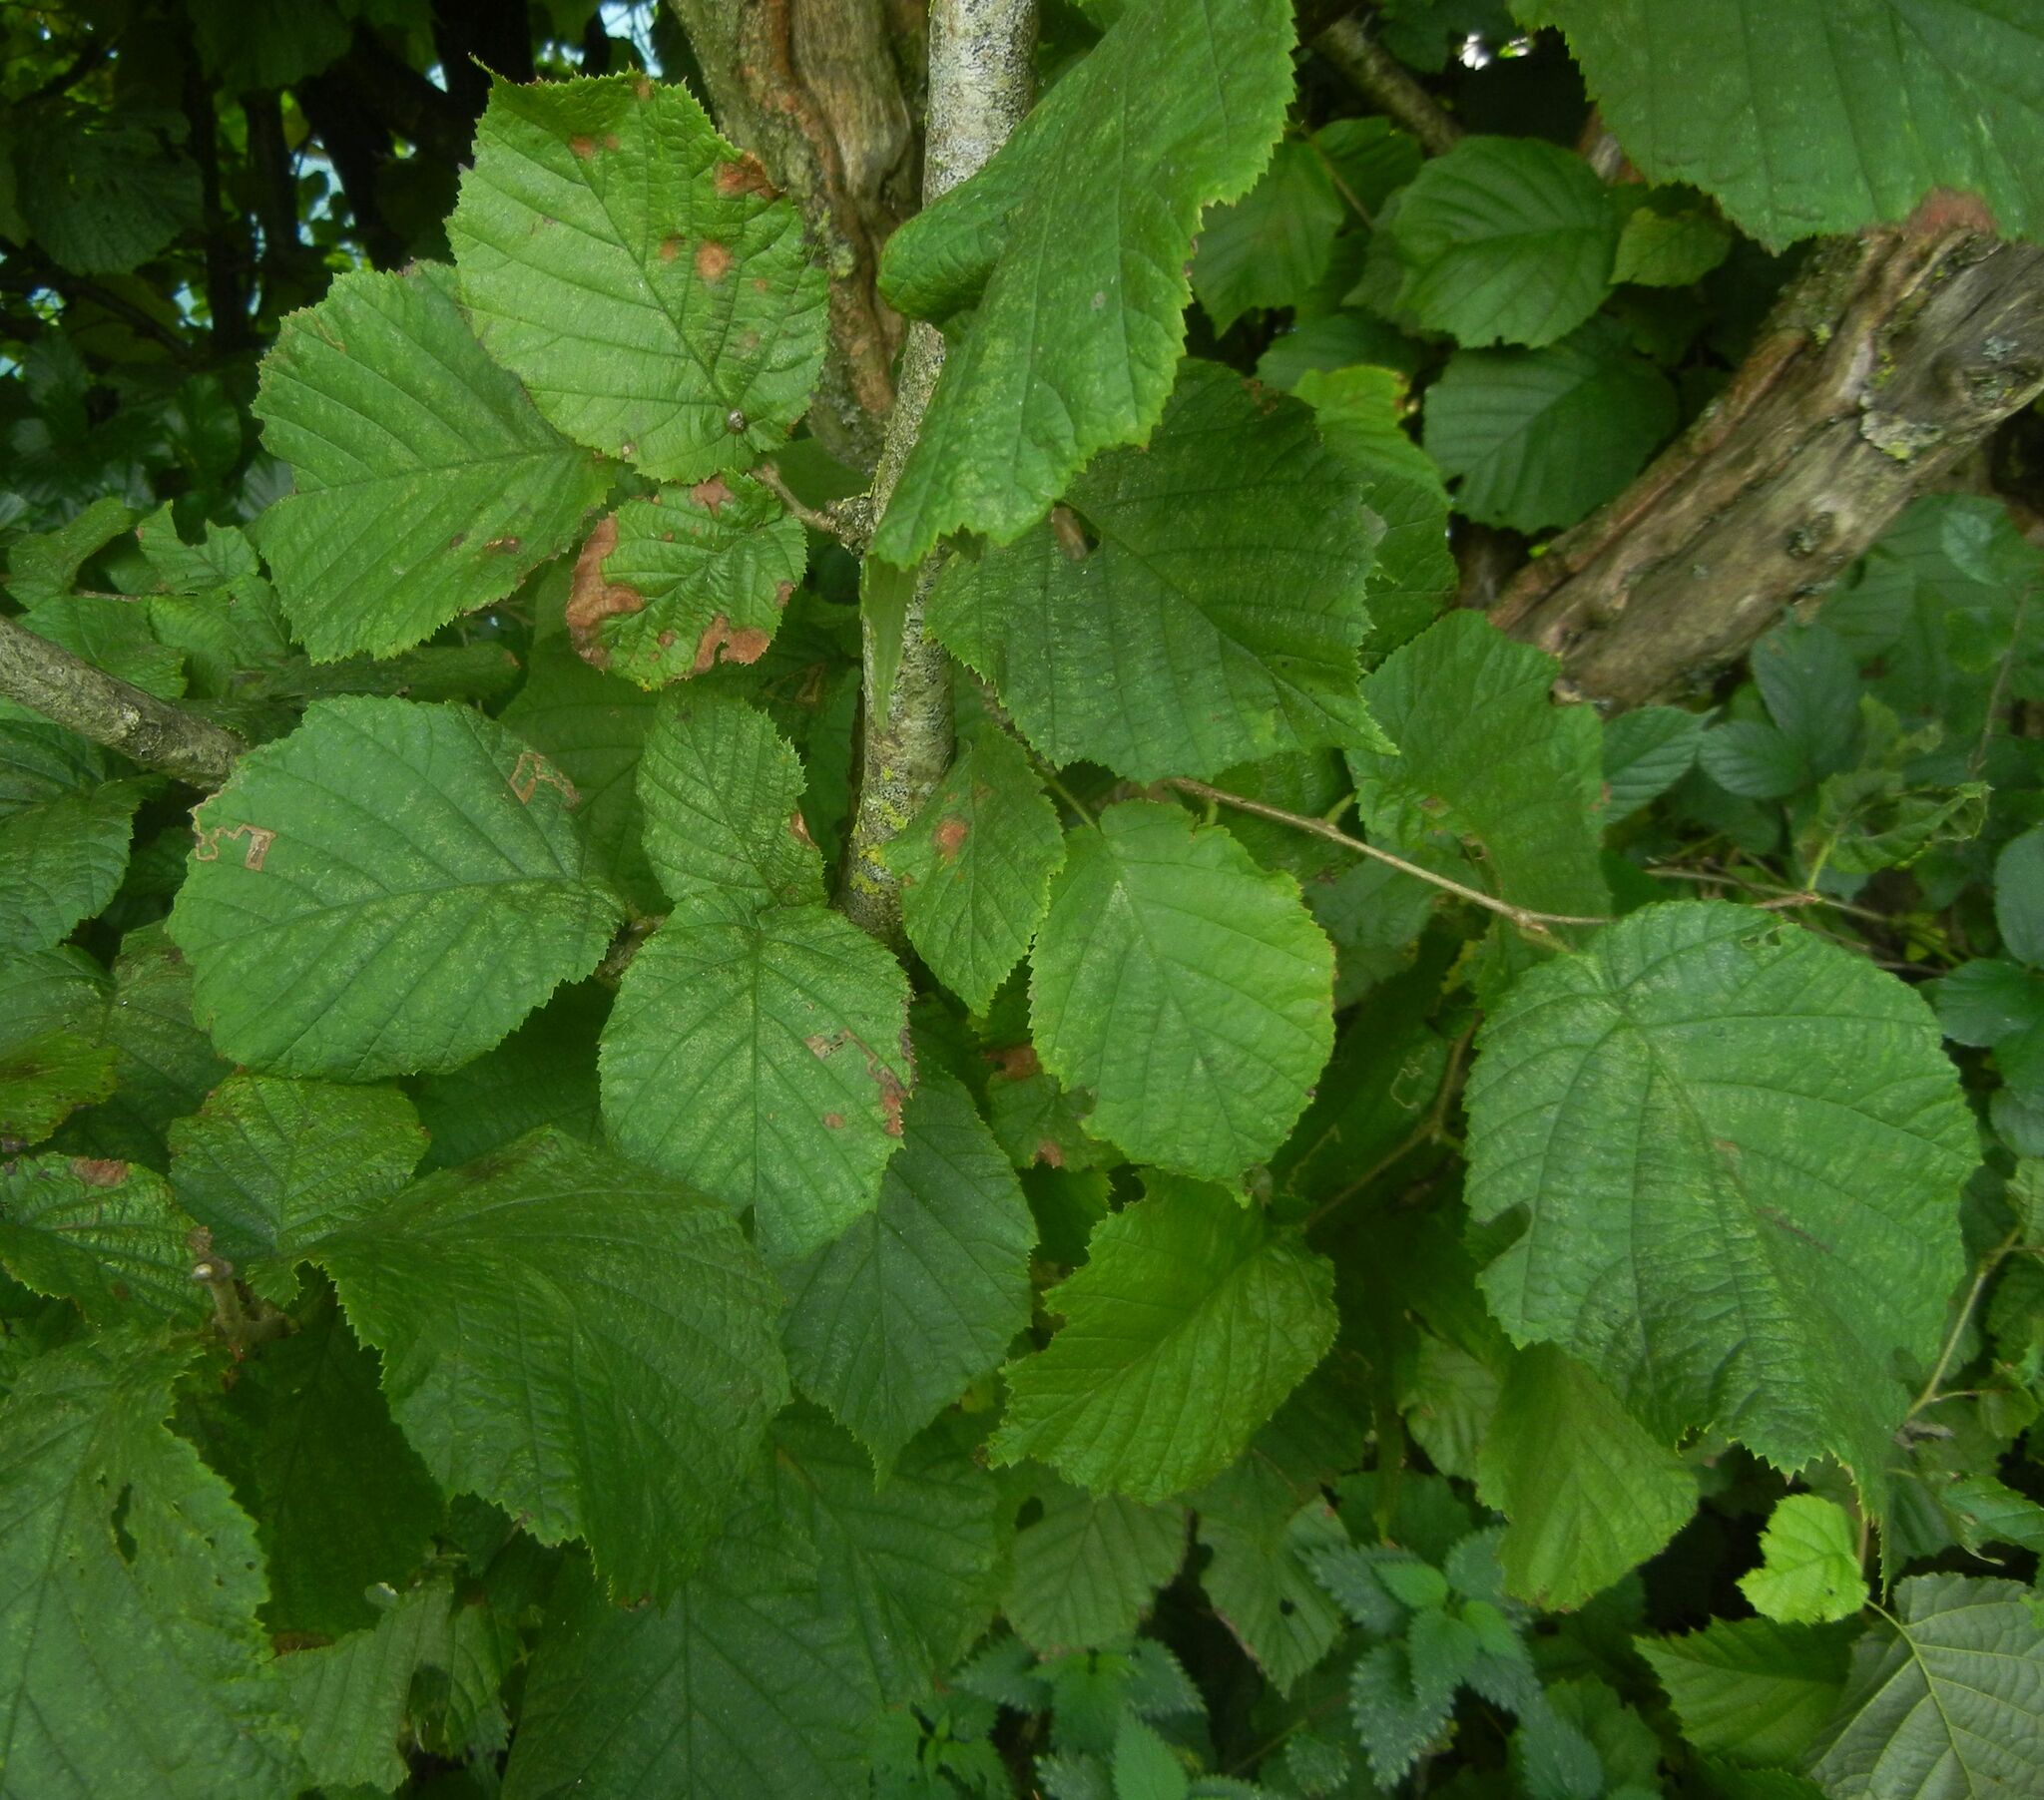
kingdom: Plantae
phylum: Tracheophyta
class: Magnoliopsida
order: Fagales
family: Betulaceae
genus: Corylus
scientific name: Corylus avellana
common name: European hazel
